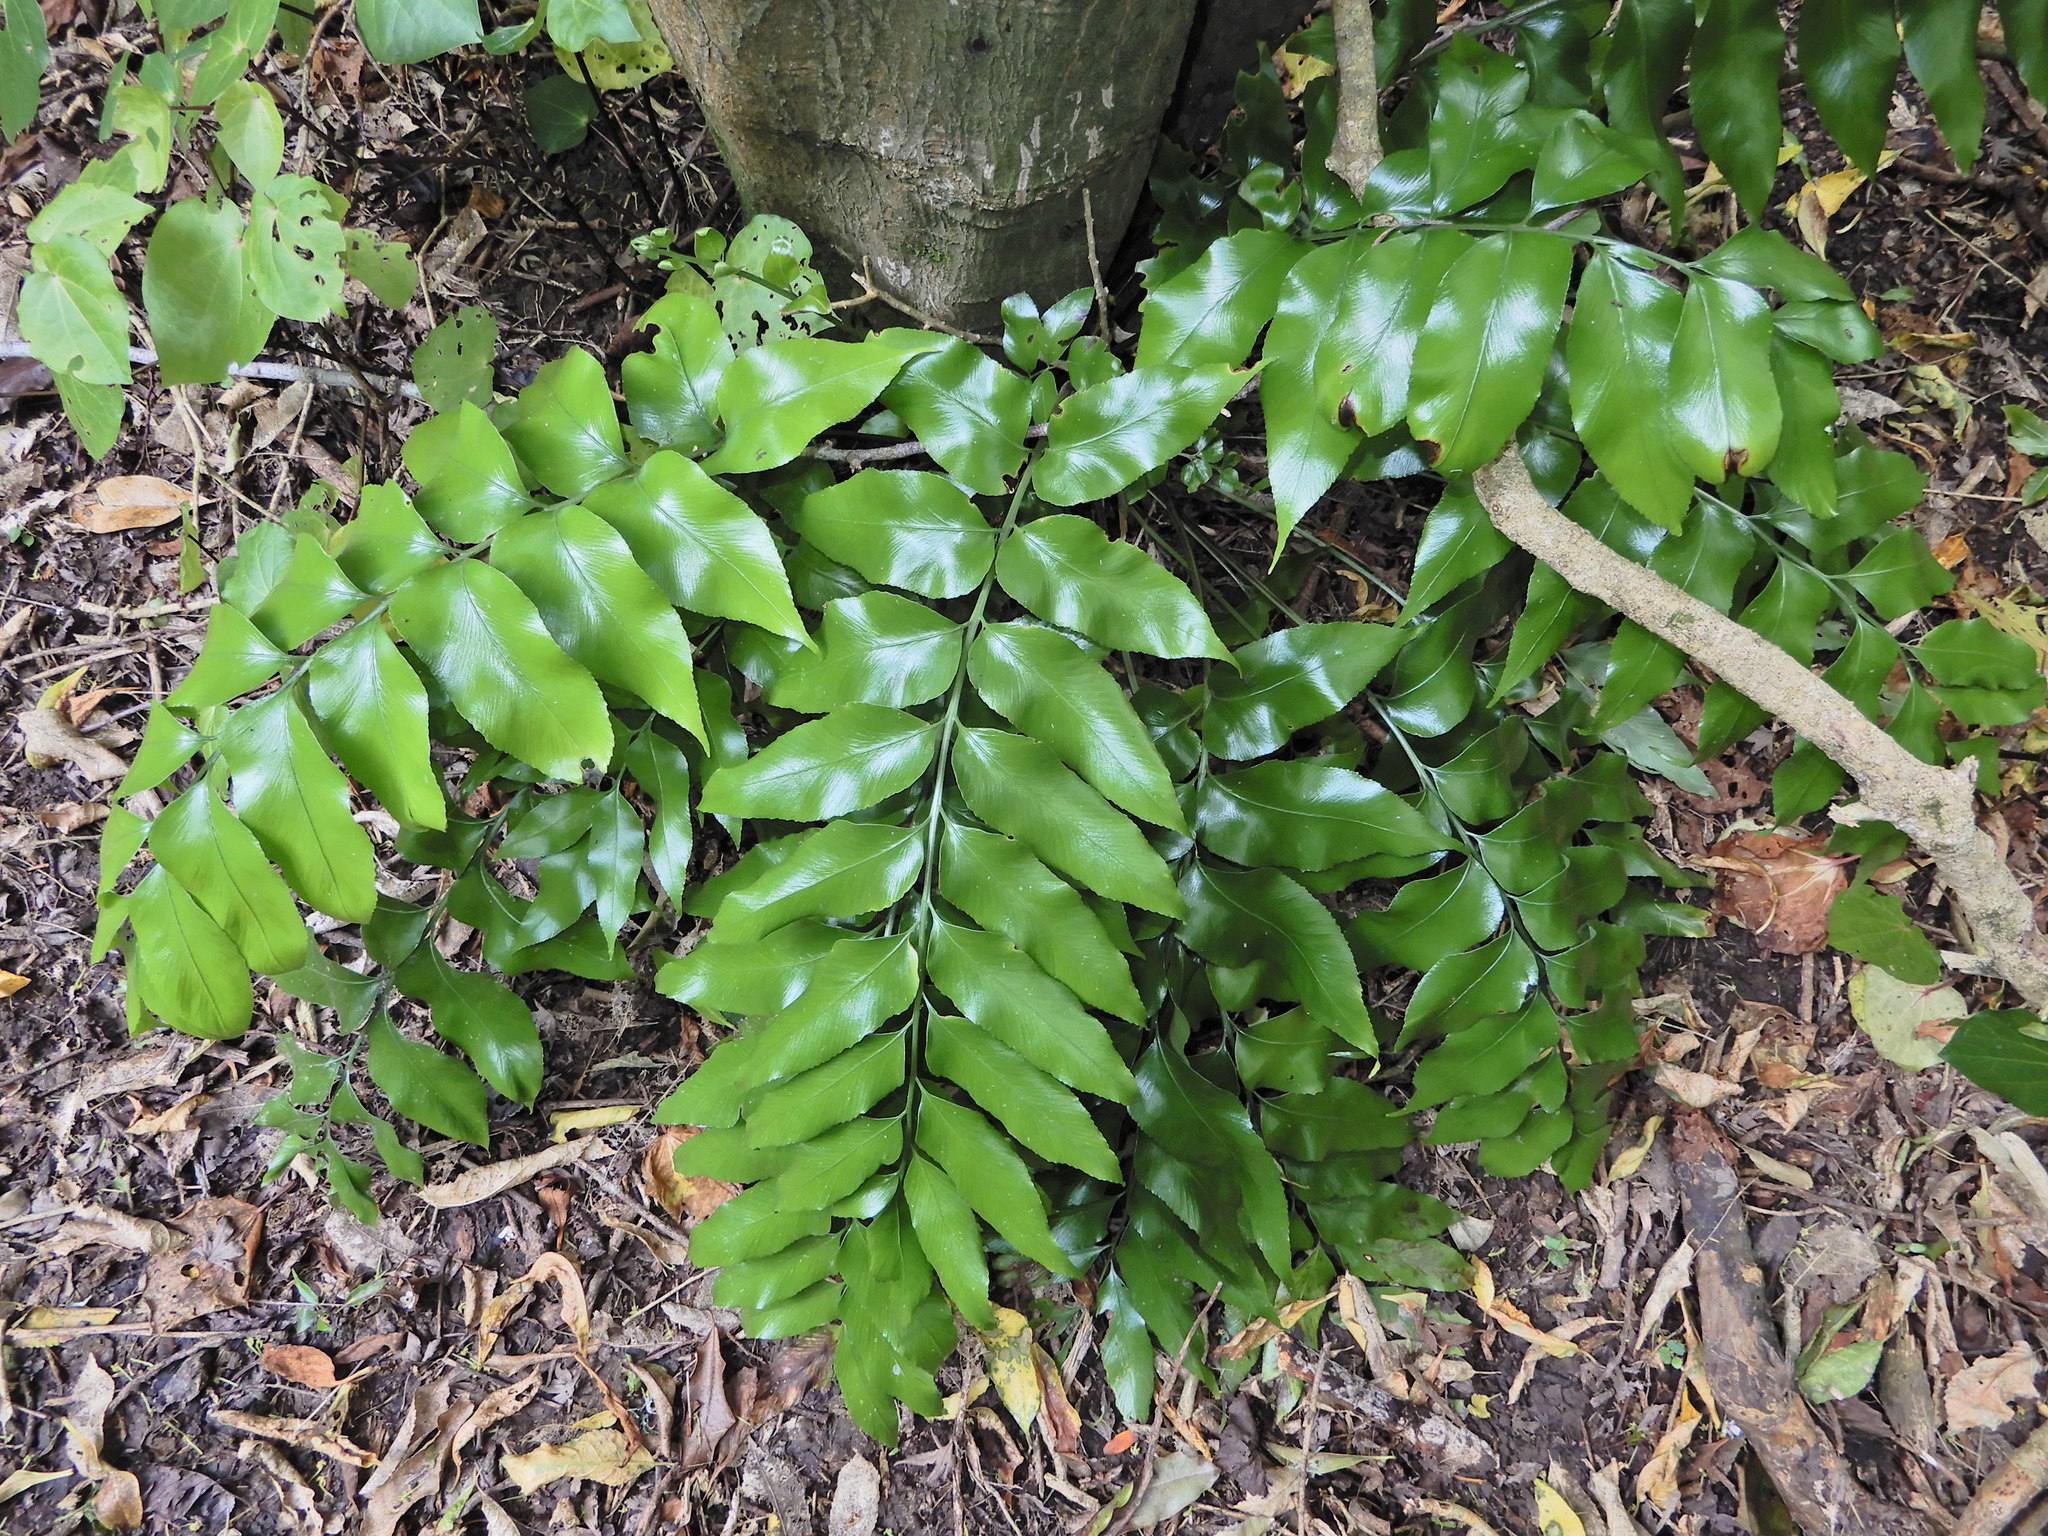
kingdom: Plantae
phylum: Tracheophyta
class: Polypodiopsida
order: Polypodiales
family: Aspleniaceae
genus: Asplenium
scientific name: Asplenium oblongifolium
